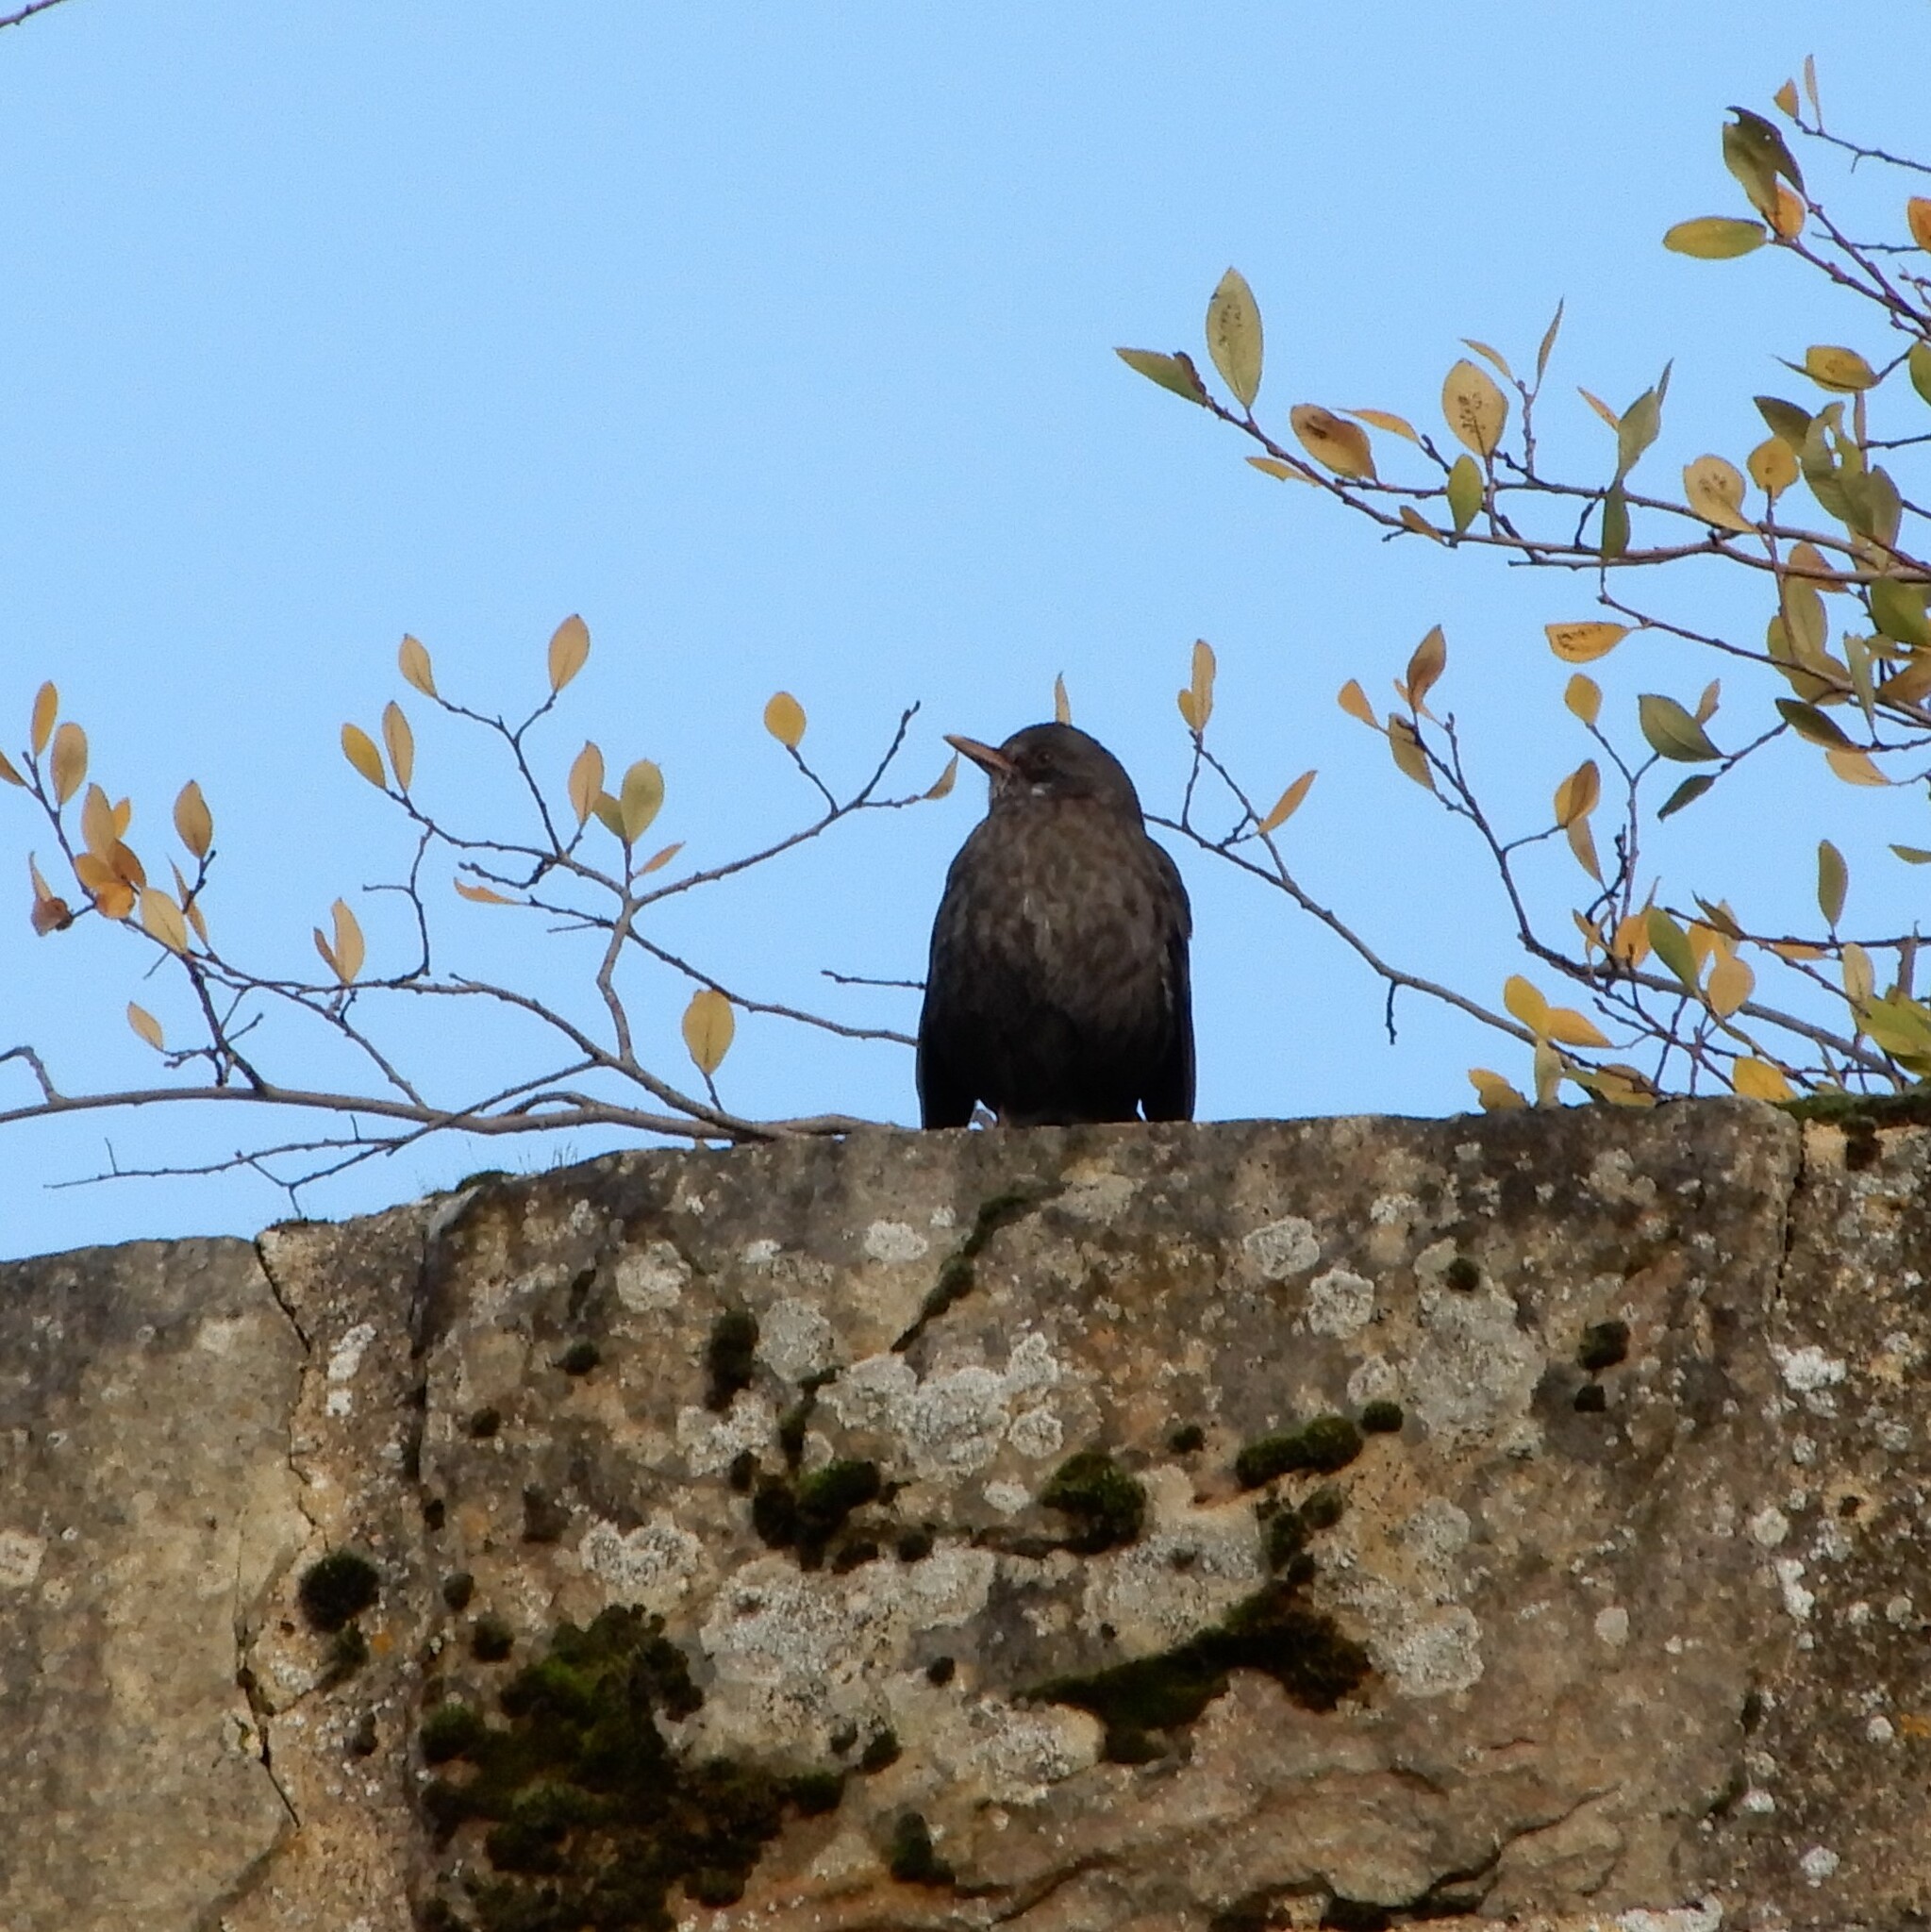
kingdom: Animalia
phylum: Chordata
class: Aves
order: Passeriformes
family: Turdidae
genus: Turdus
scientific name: Turdus merula
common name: Common blackbird
